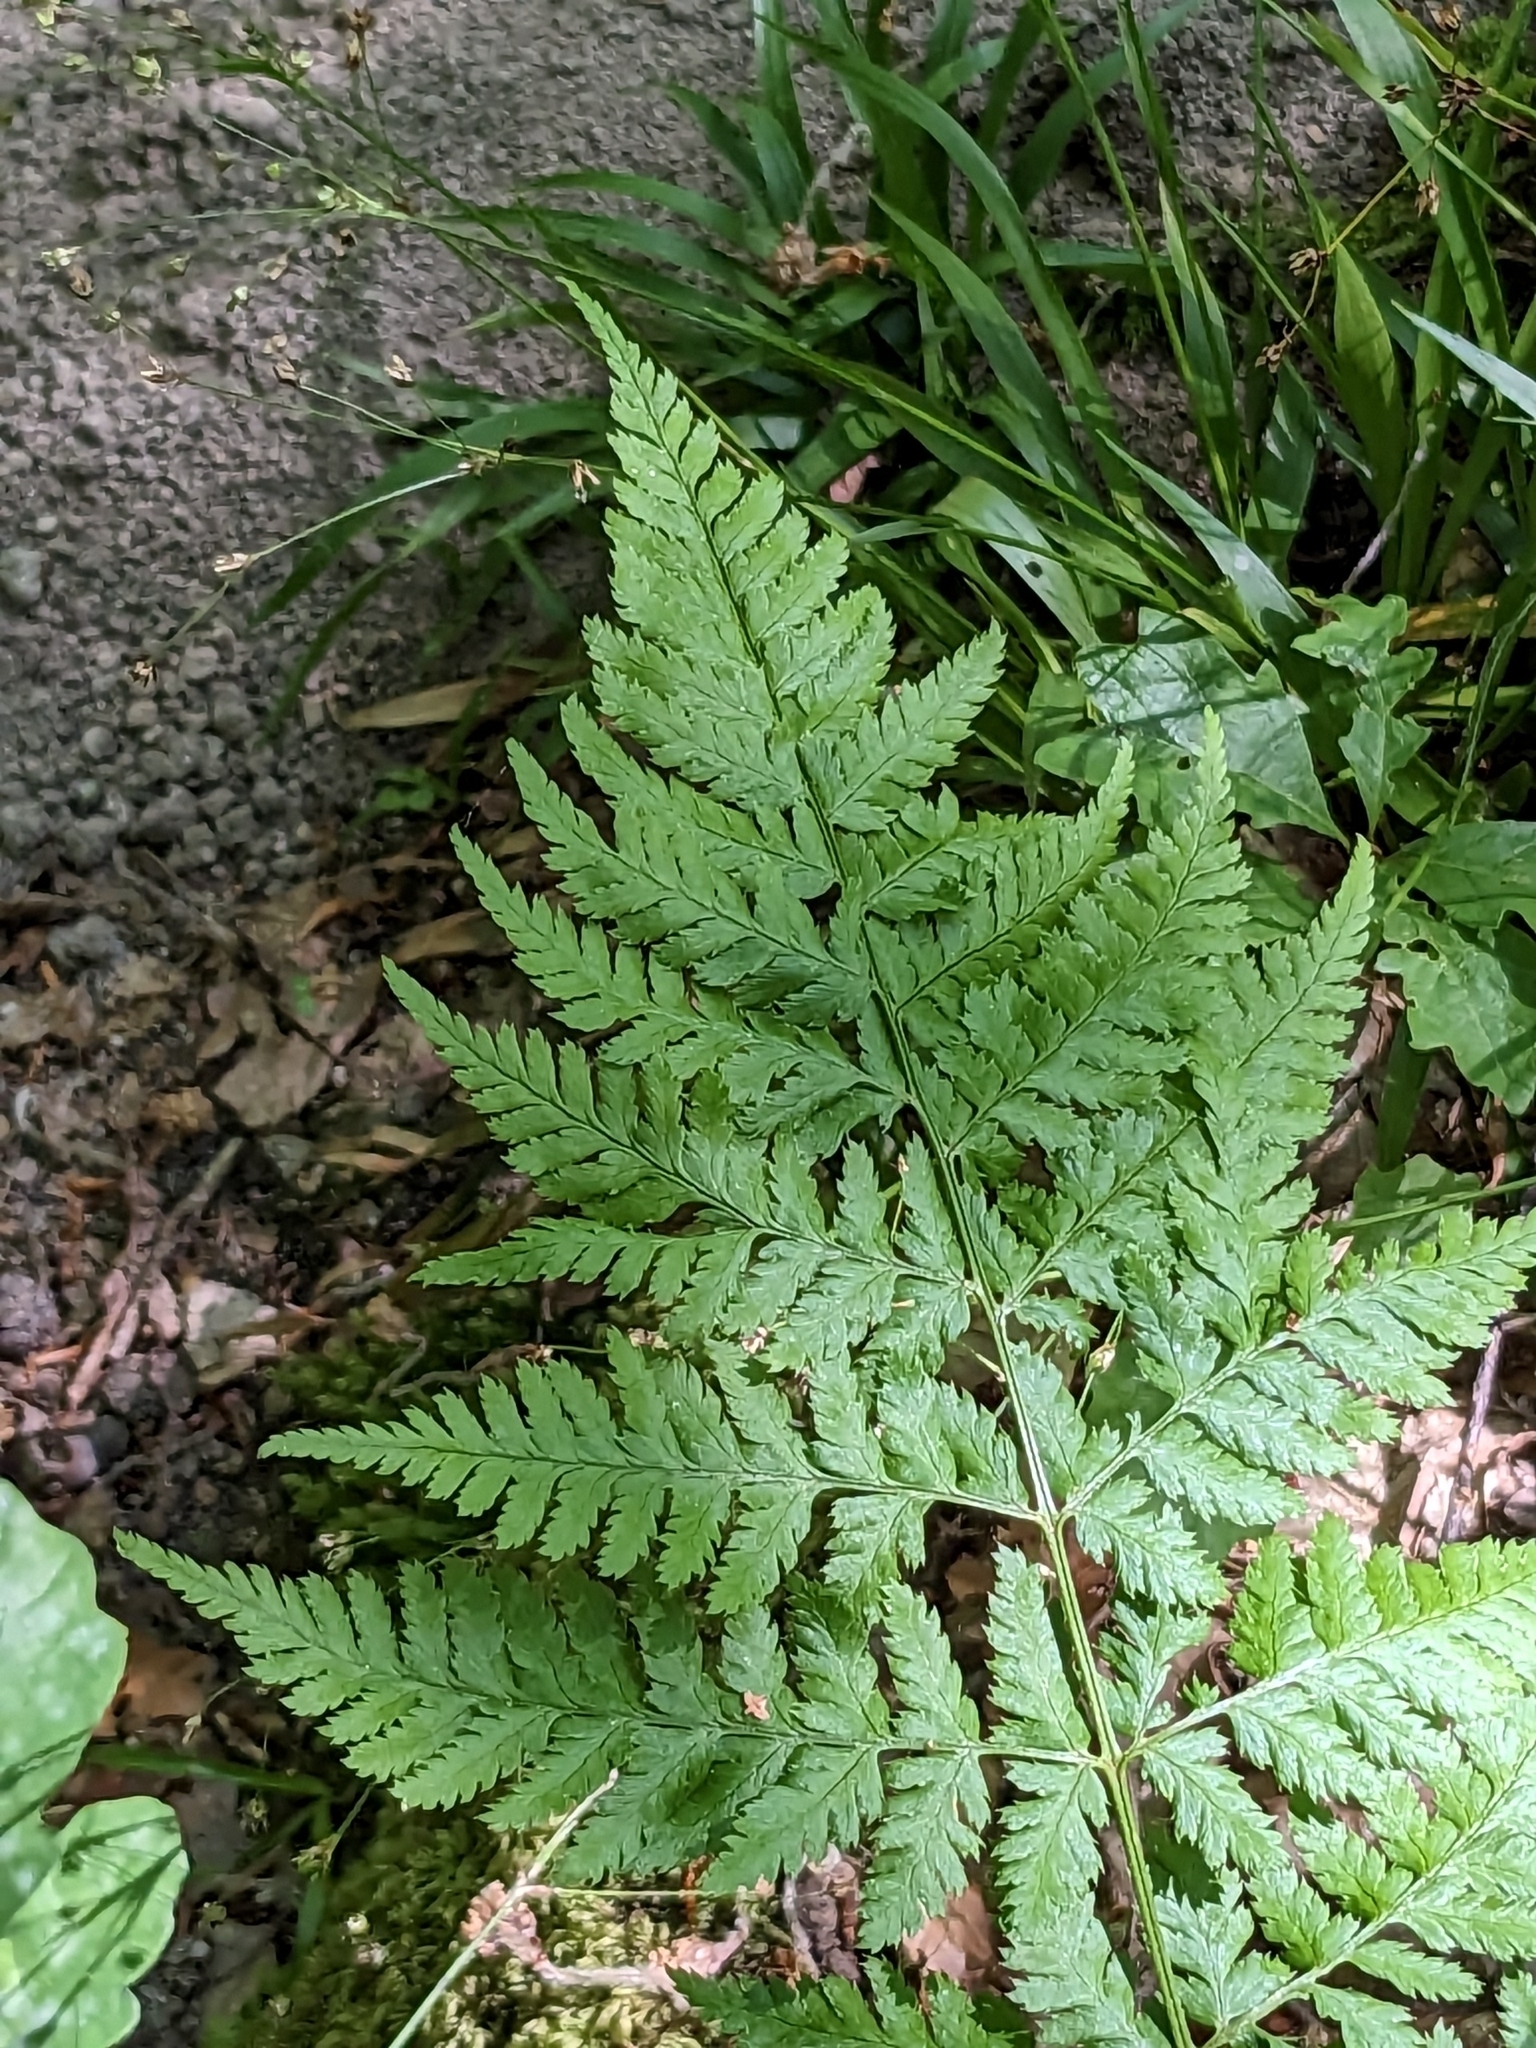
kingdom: Plantae
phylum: Tracheophyta
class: Polypodiopsida
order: Polypodiales
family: Dryopteridaceae
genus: Dryopteris
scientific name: Dryopteris dilatata
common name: Broad buckler-fern
